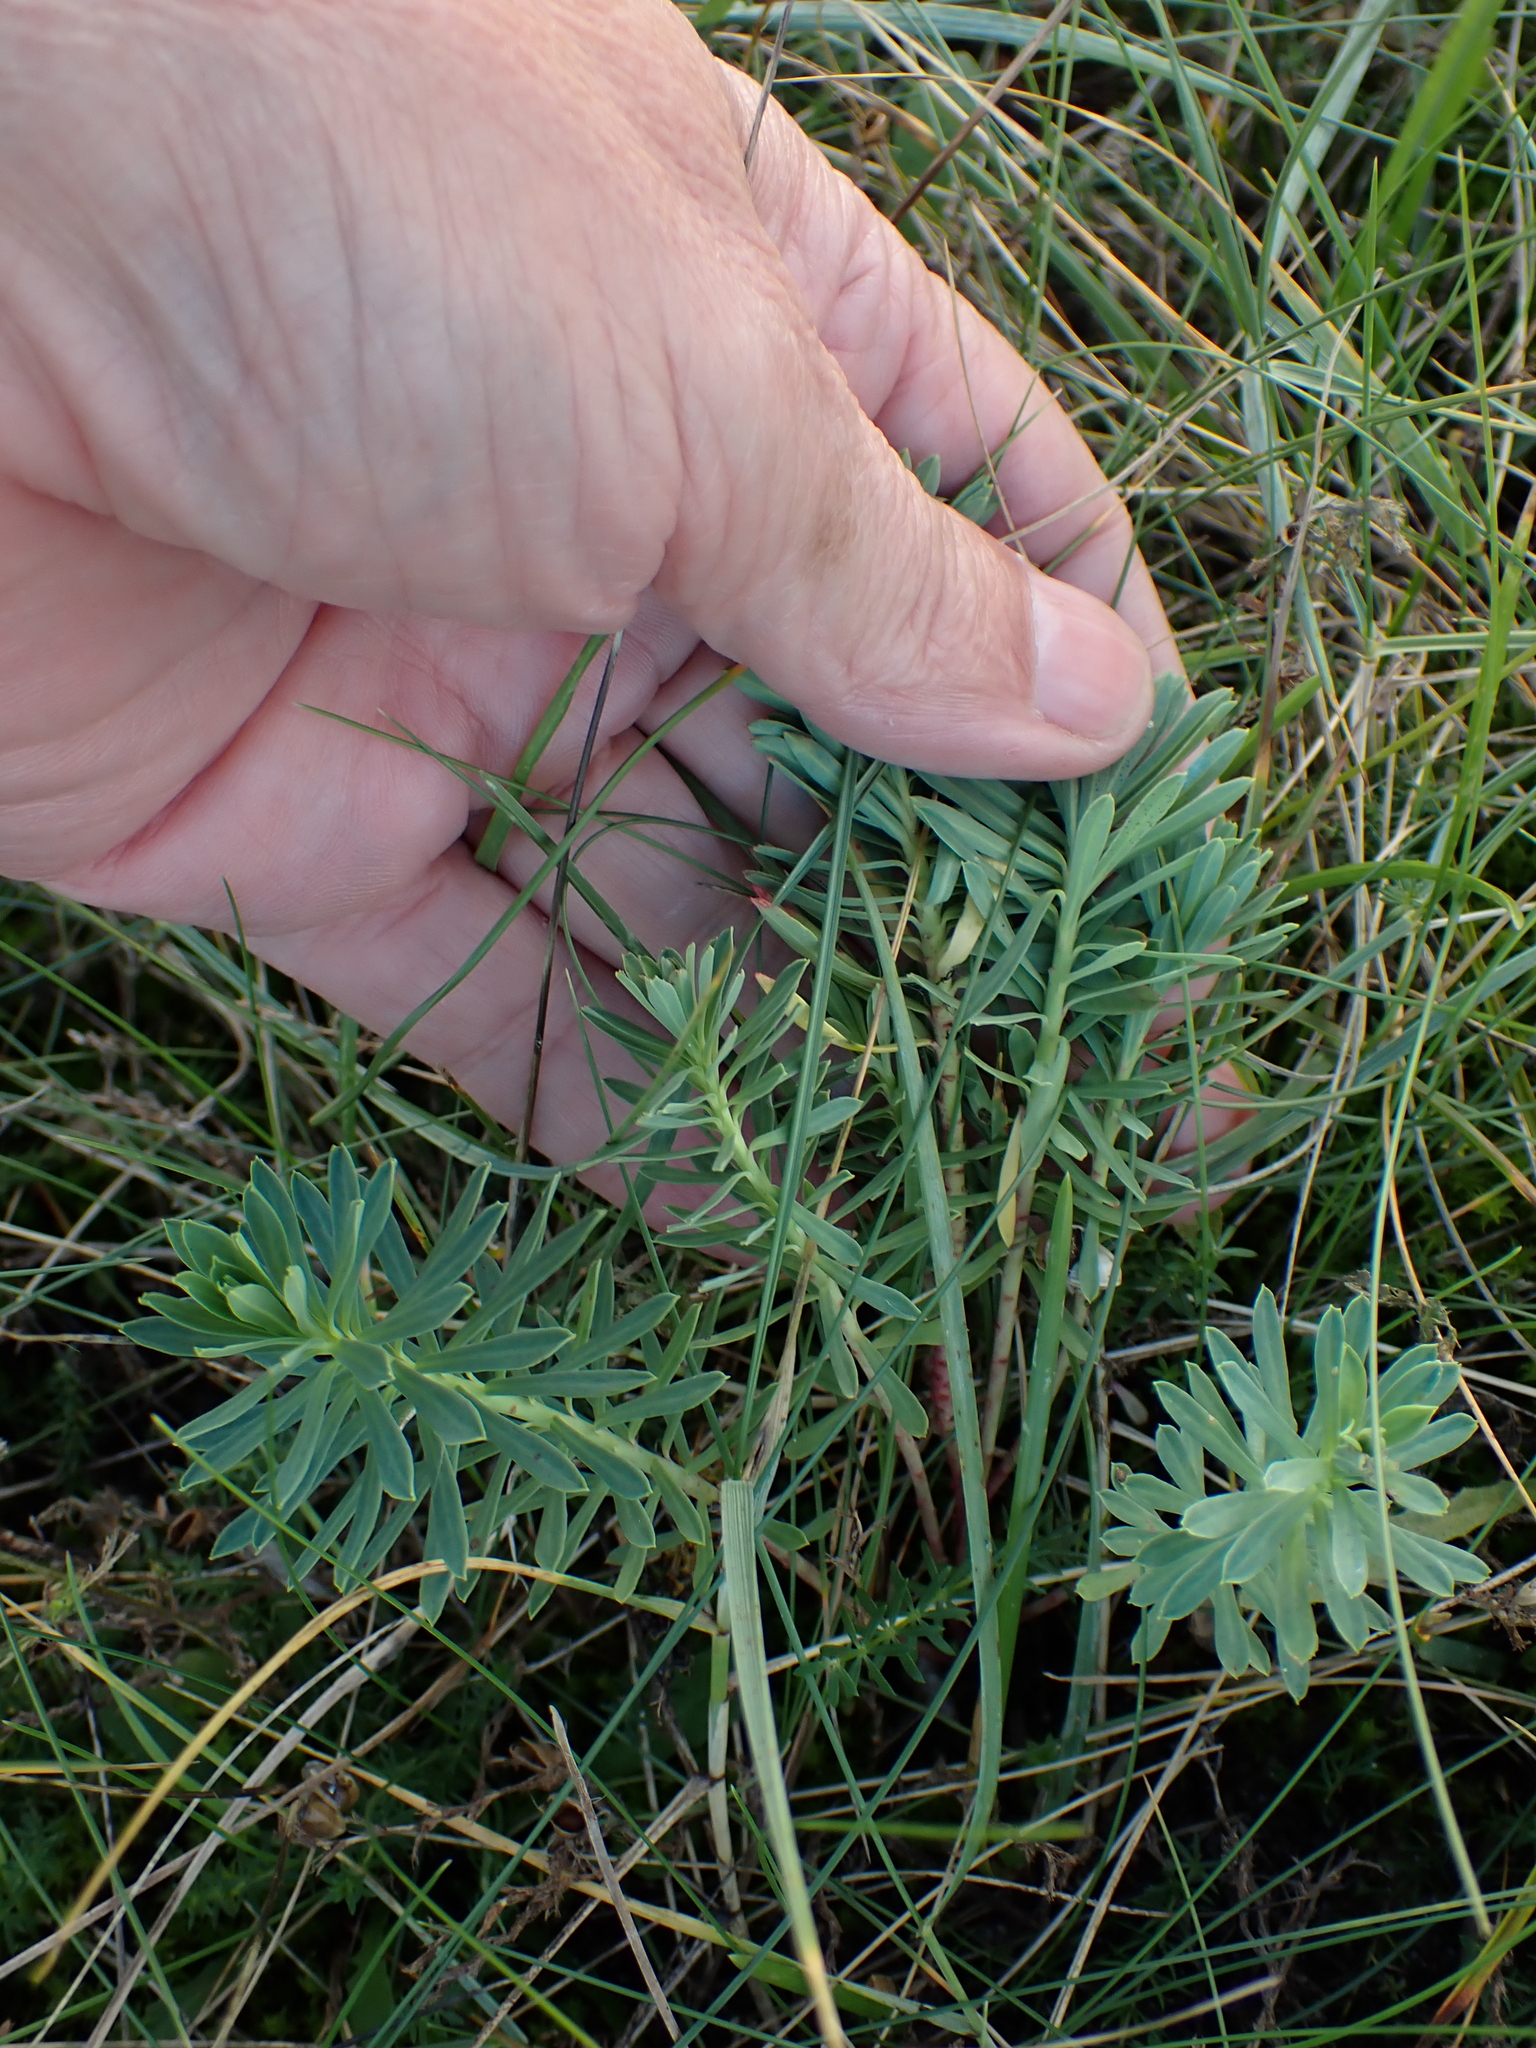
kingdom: Plantae
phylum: Tracheophyta
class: Magnoliopsida
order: Malpighiales
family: Euphorbiaceae
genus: Euphorbia
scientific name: Euphorbia portlandica
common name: Portland spurge
